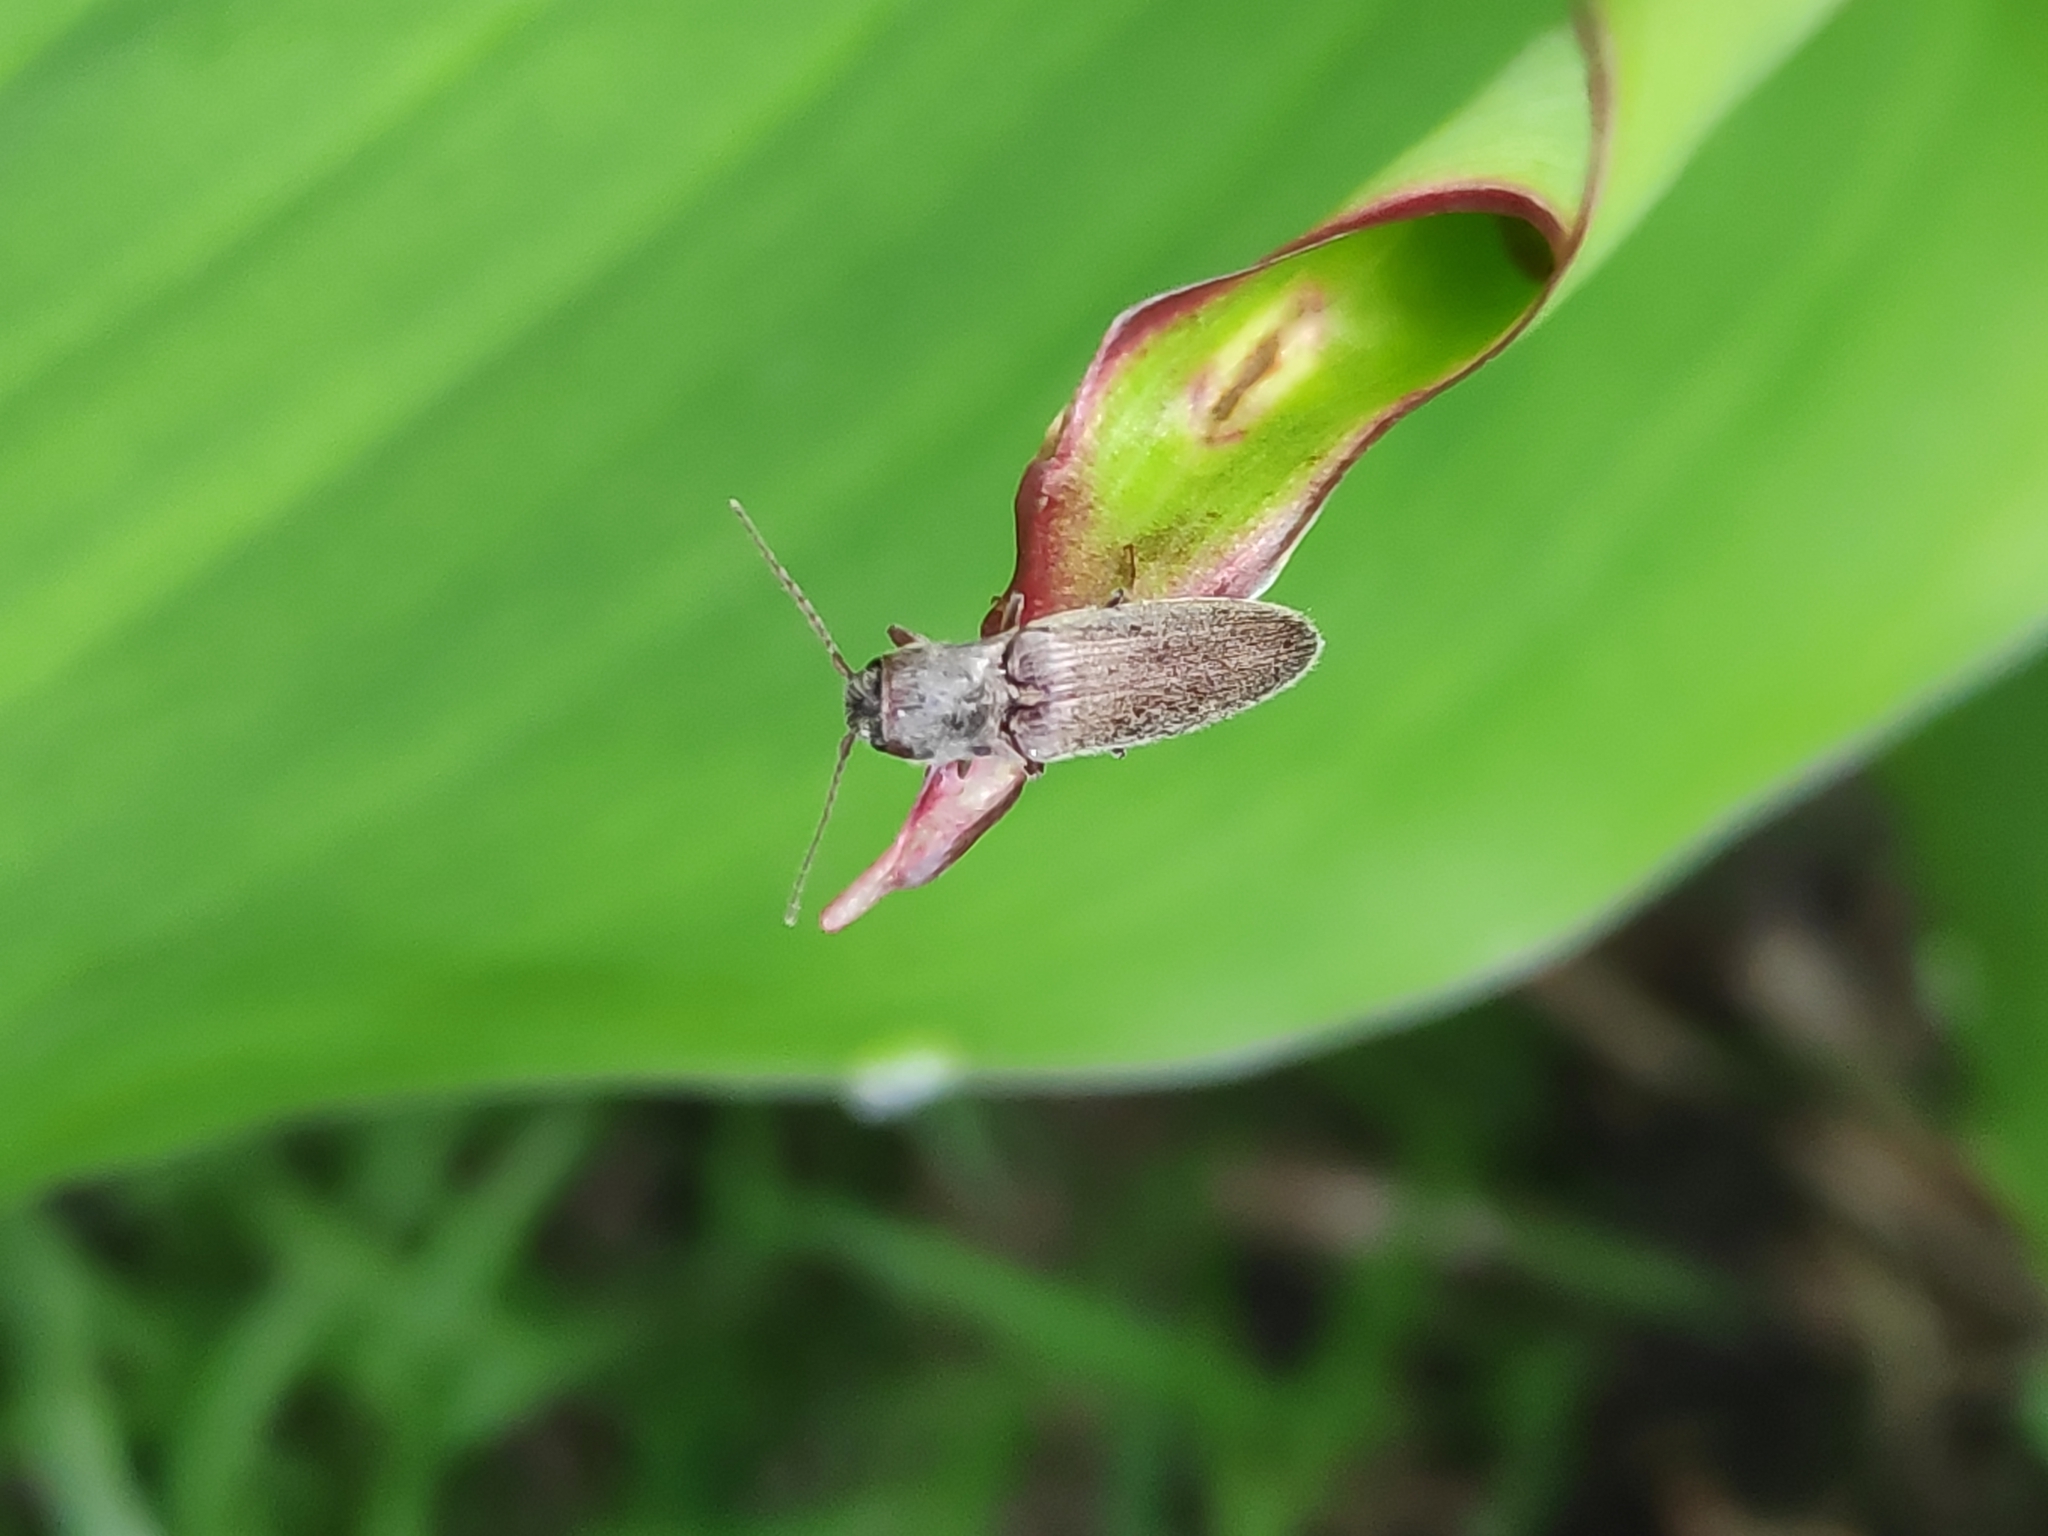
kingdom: Animalia
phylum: Arthropoda
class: Insecta
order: Coleoptera
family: Elateridae
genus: Synaptus
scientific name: Synaptus filiformis
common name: Hairy click beetle
